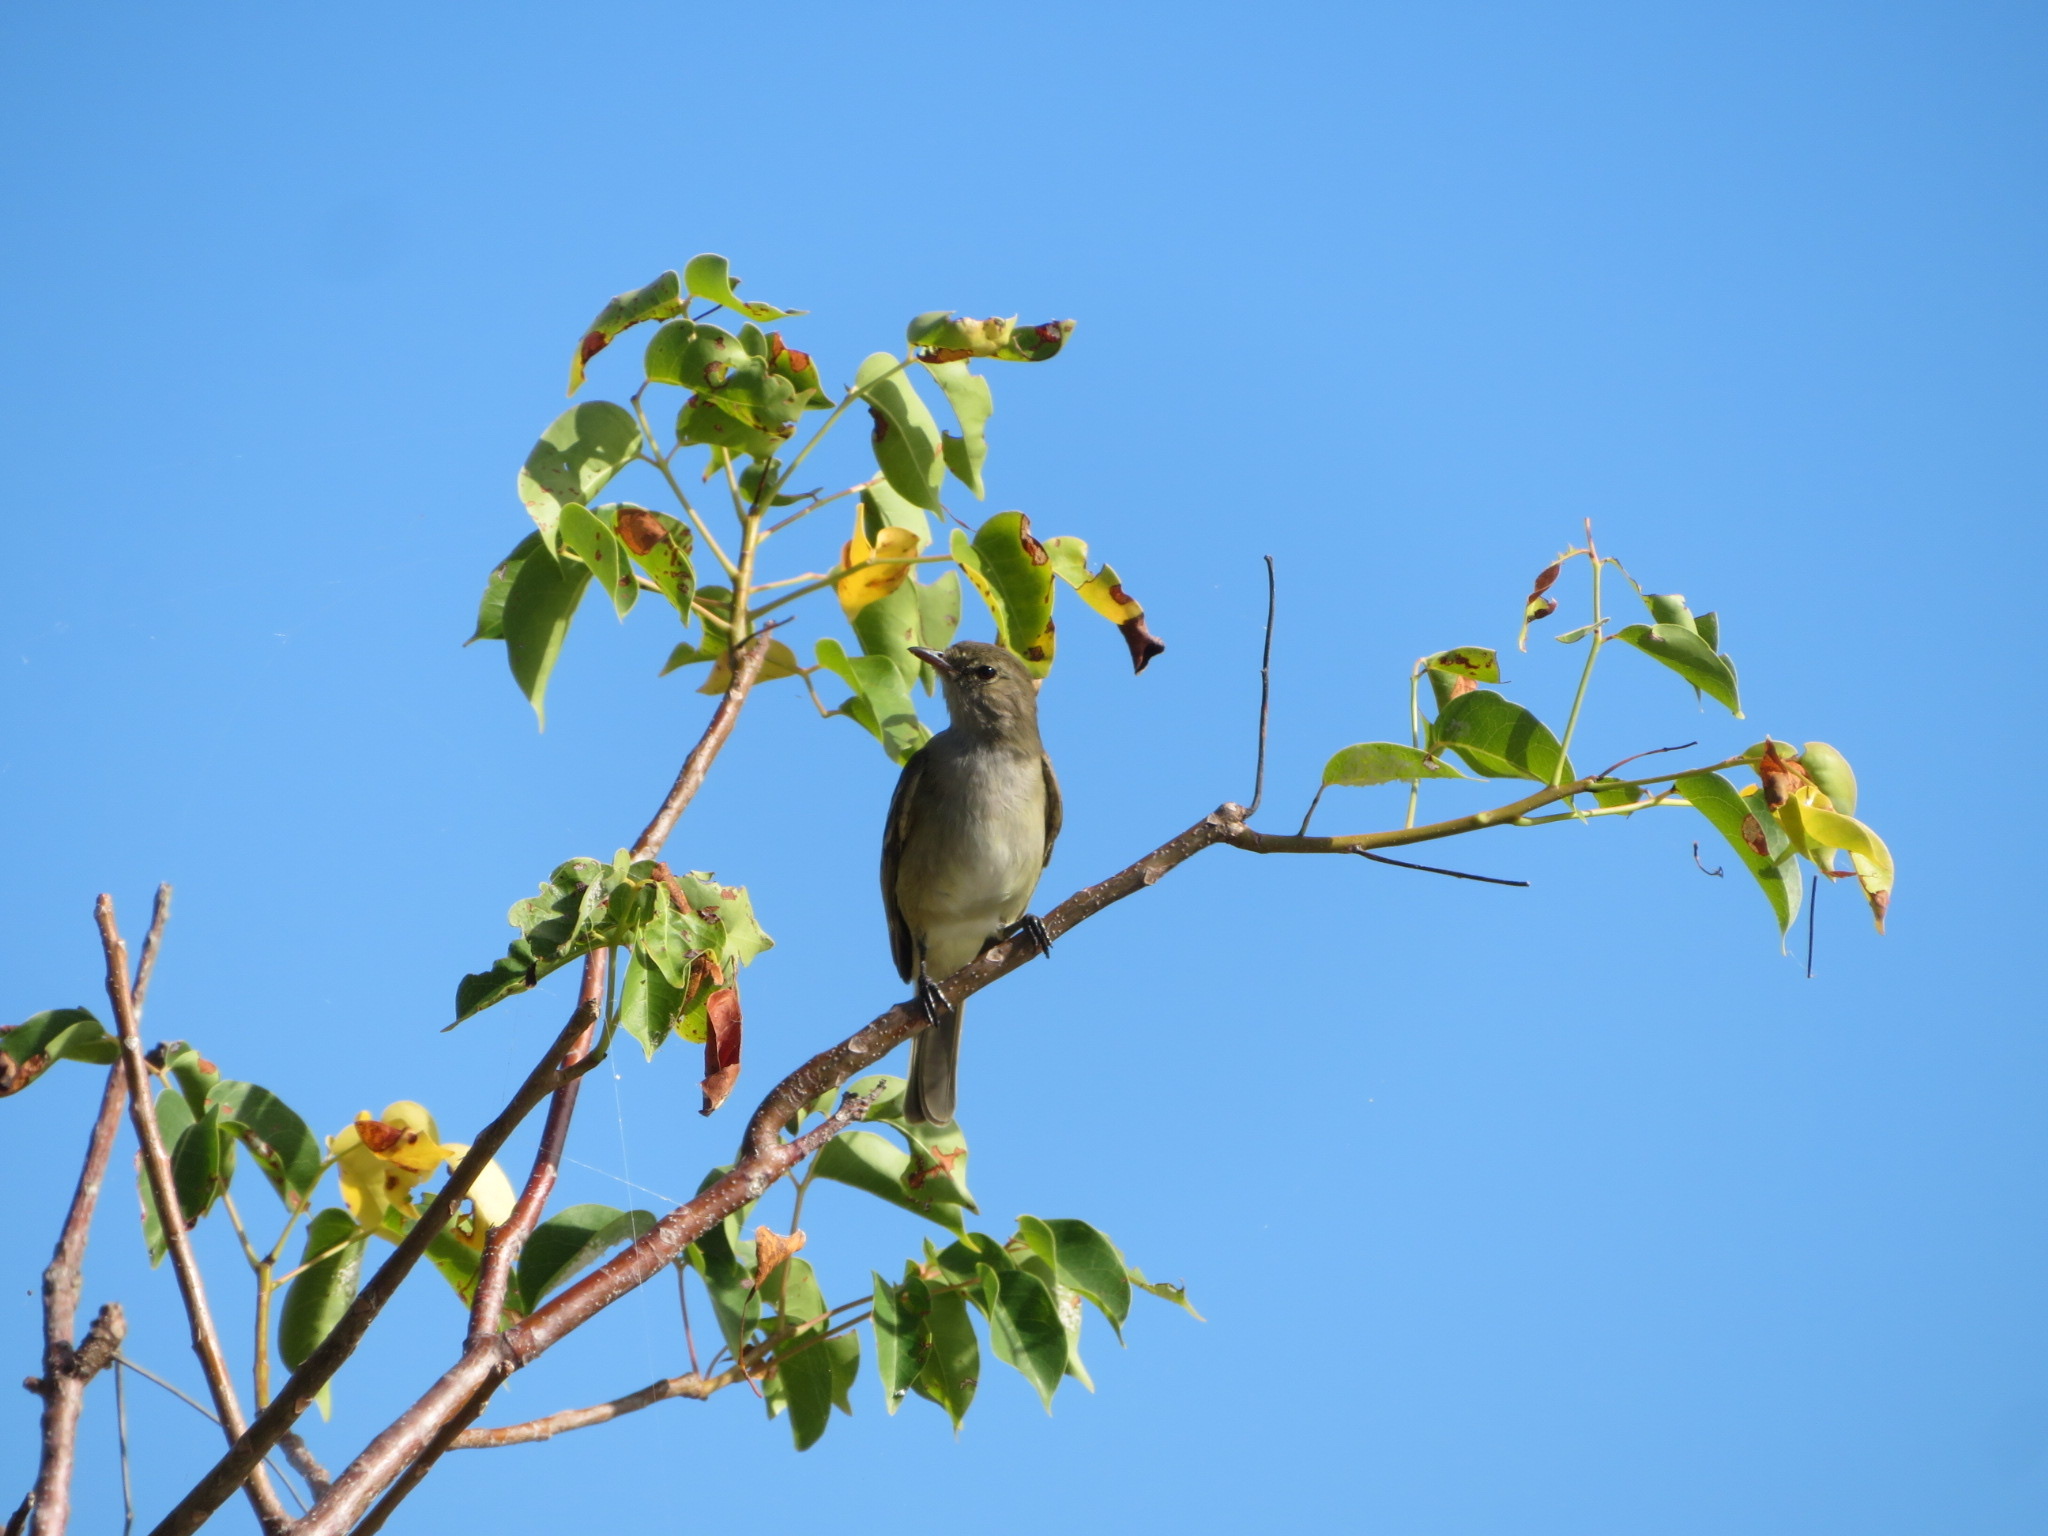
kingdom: Animalia
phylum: Chordata
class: Aves
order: Passeriformes
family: Tyrannidae
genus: Elaenia
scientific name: Elaenia martinica
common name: Caribbean elaenia
